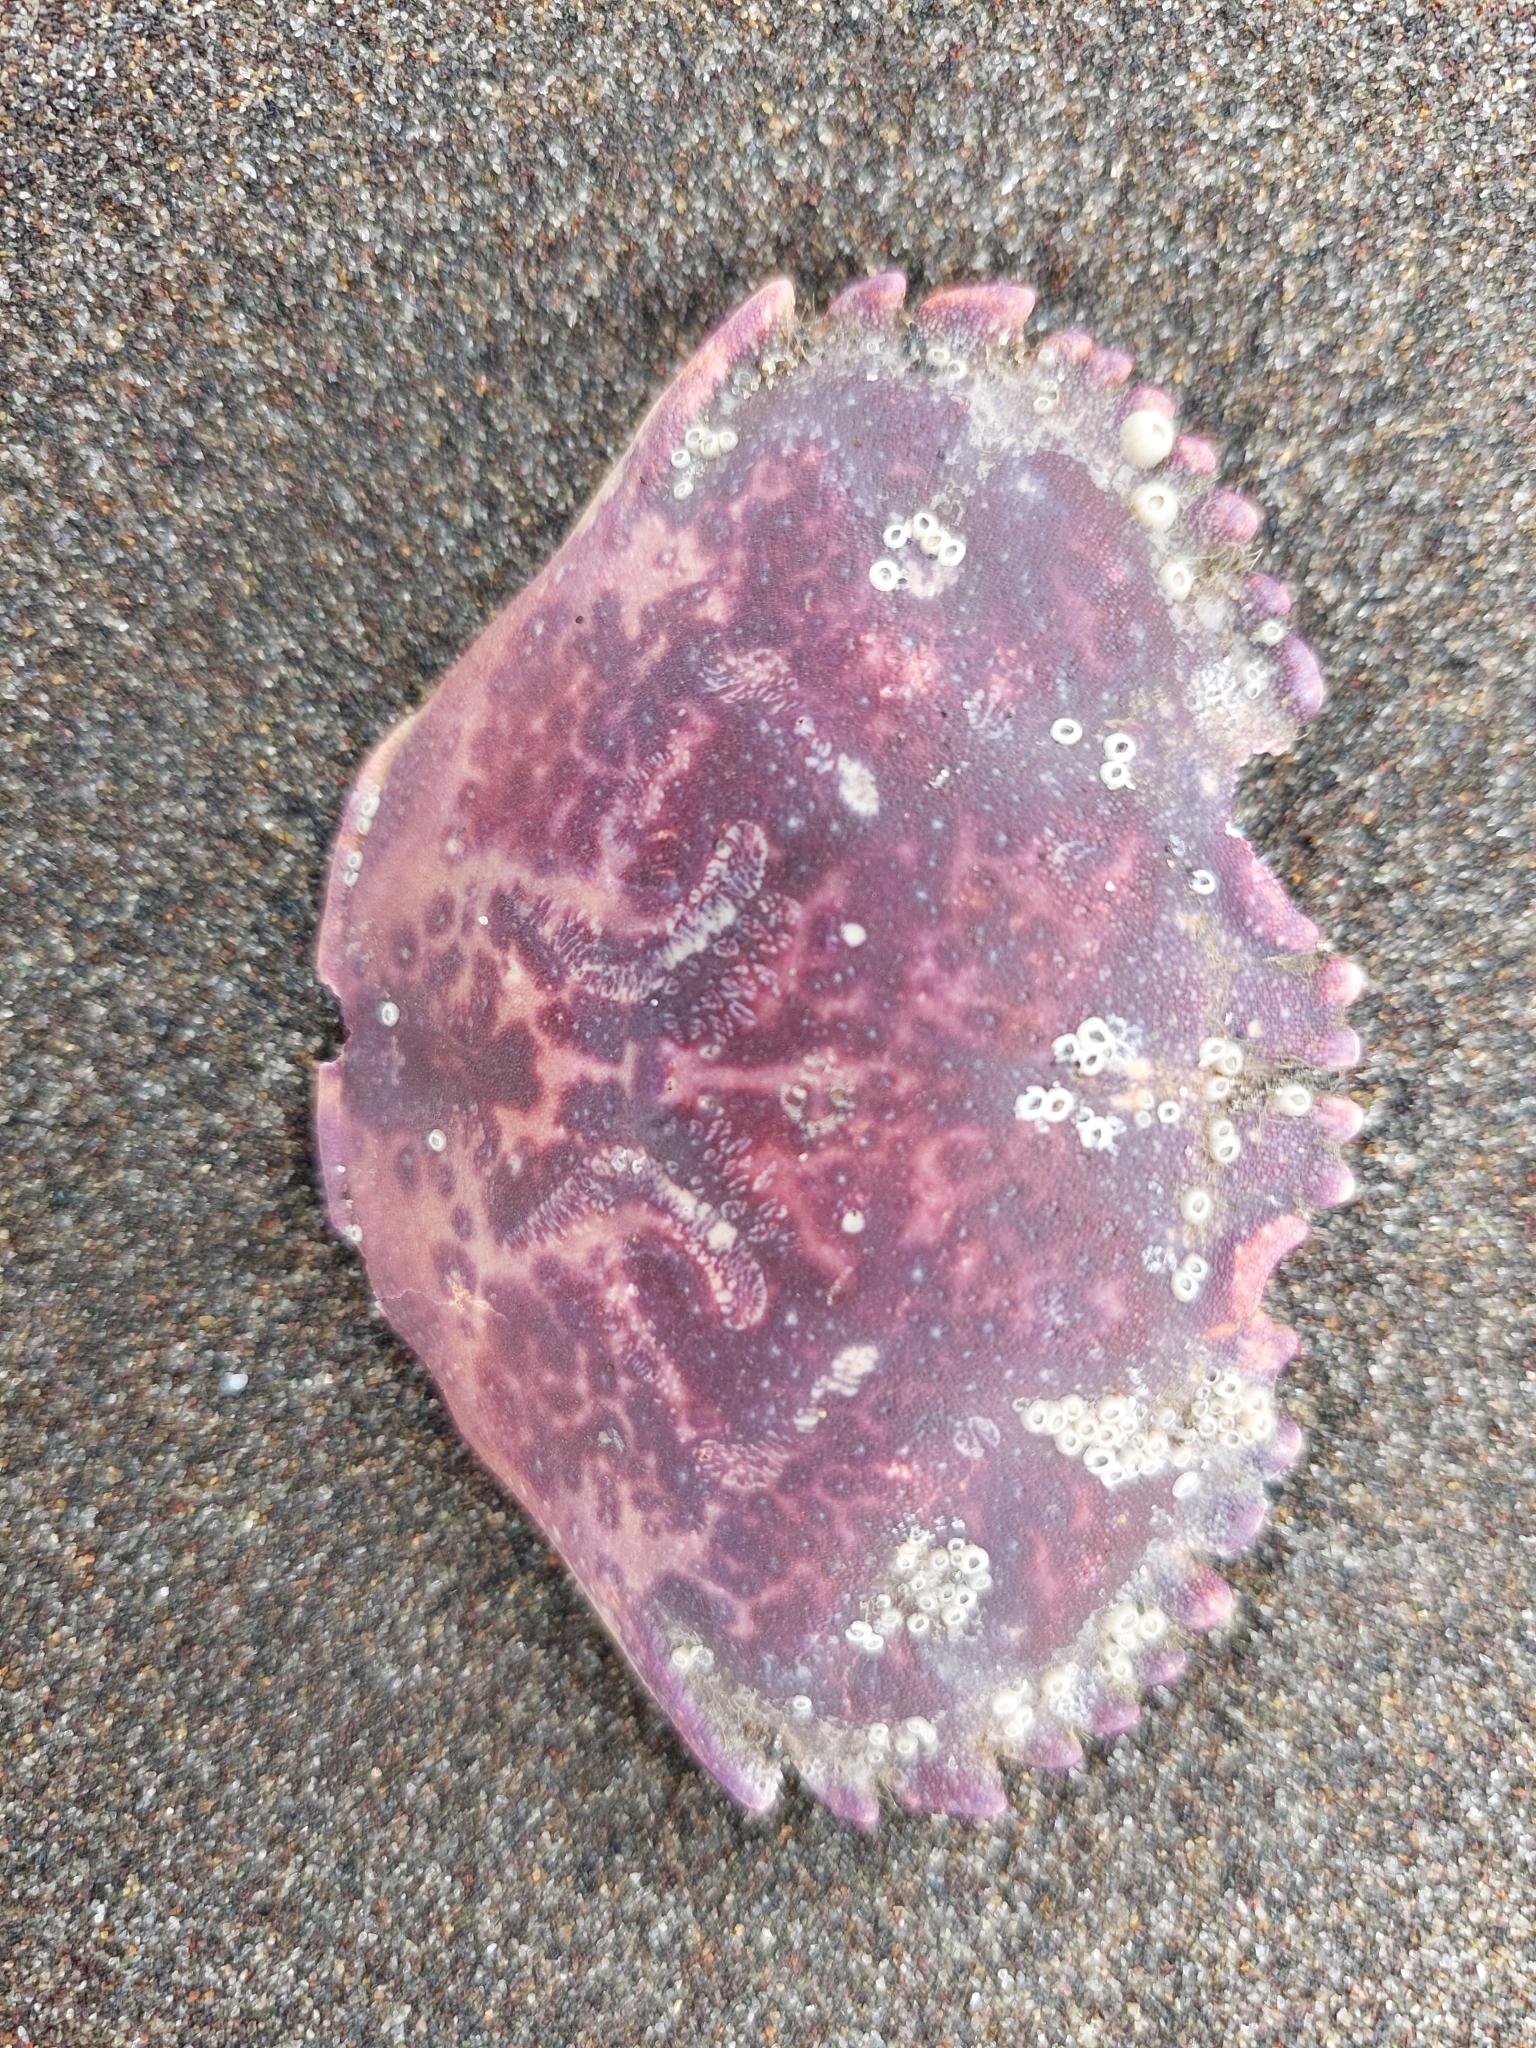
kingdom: Animalia
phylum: Arthropoda
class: Malacostraca
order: Decapoda
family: Platyxanthidae
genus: Platyxanthus
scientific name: Platyxanthus orbignyi
